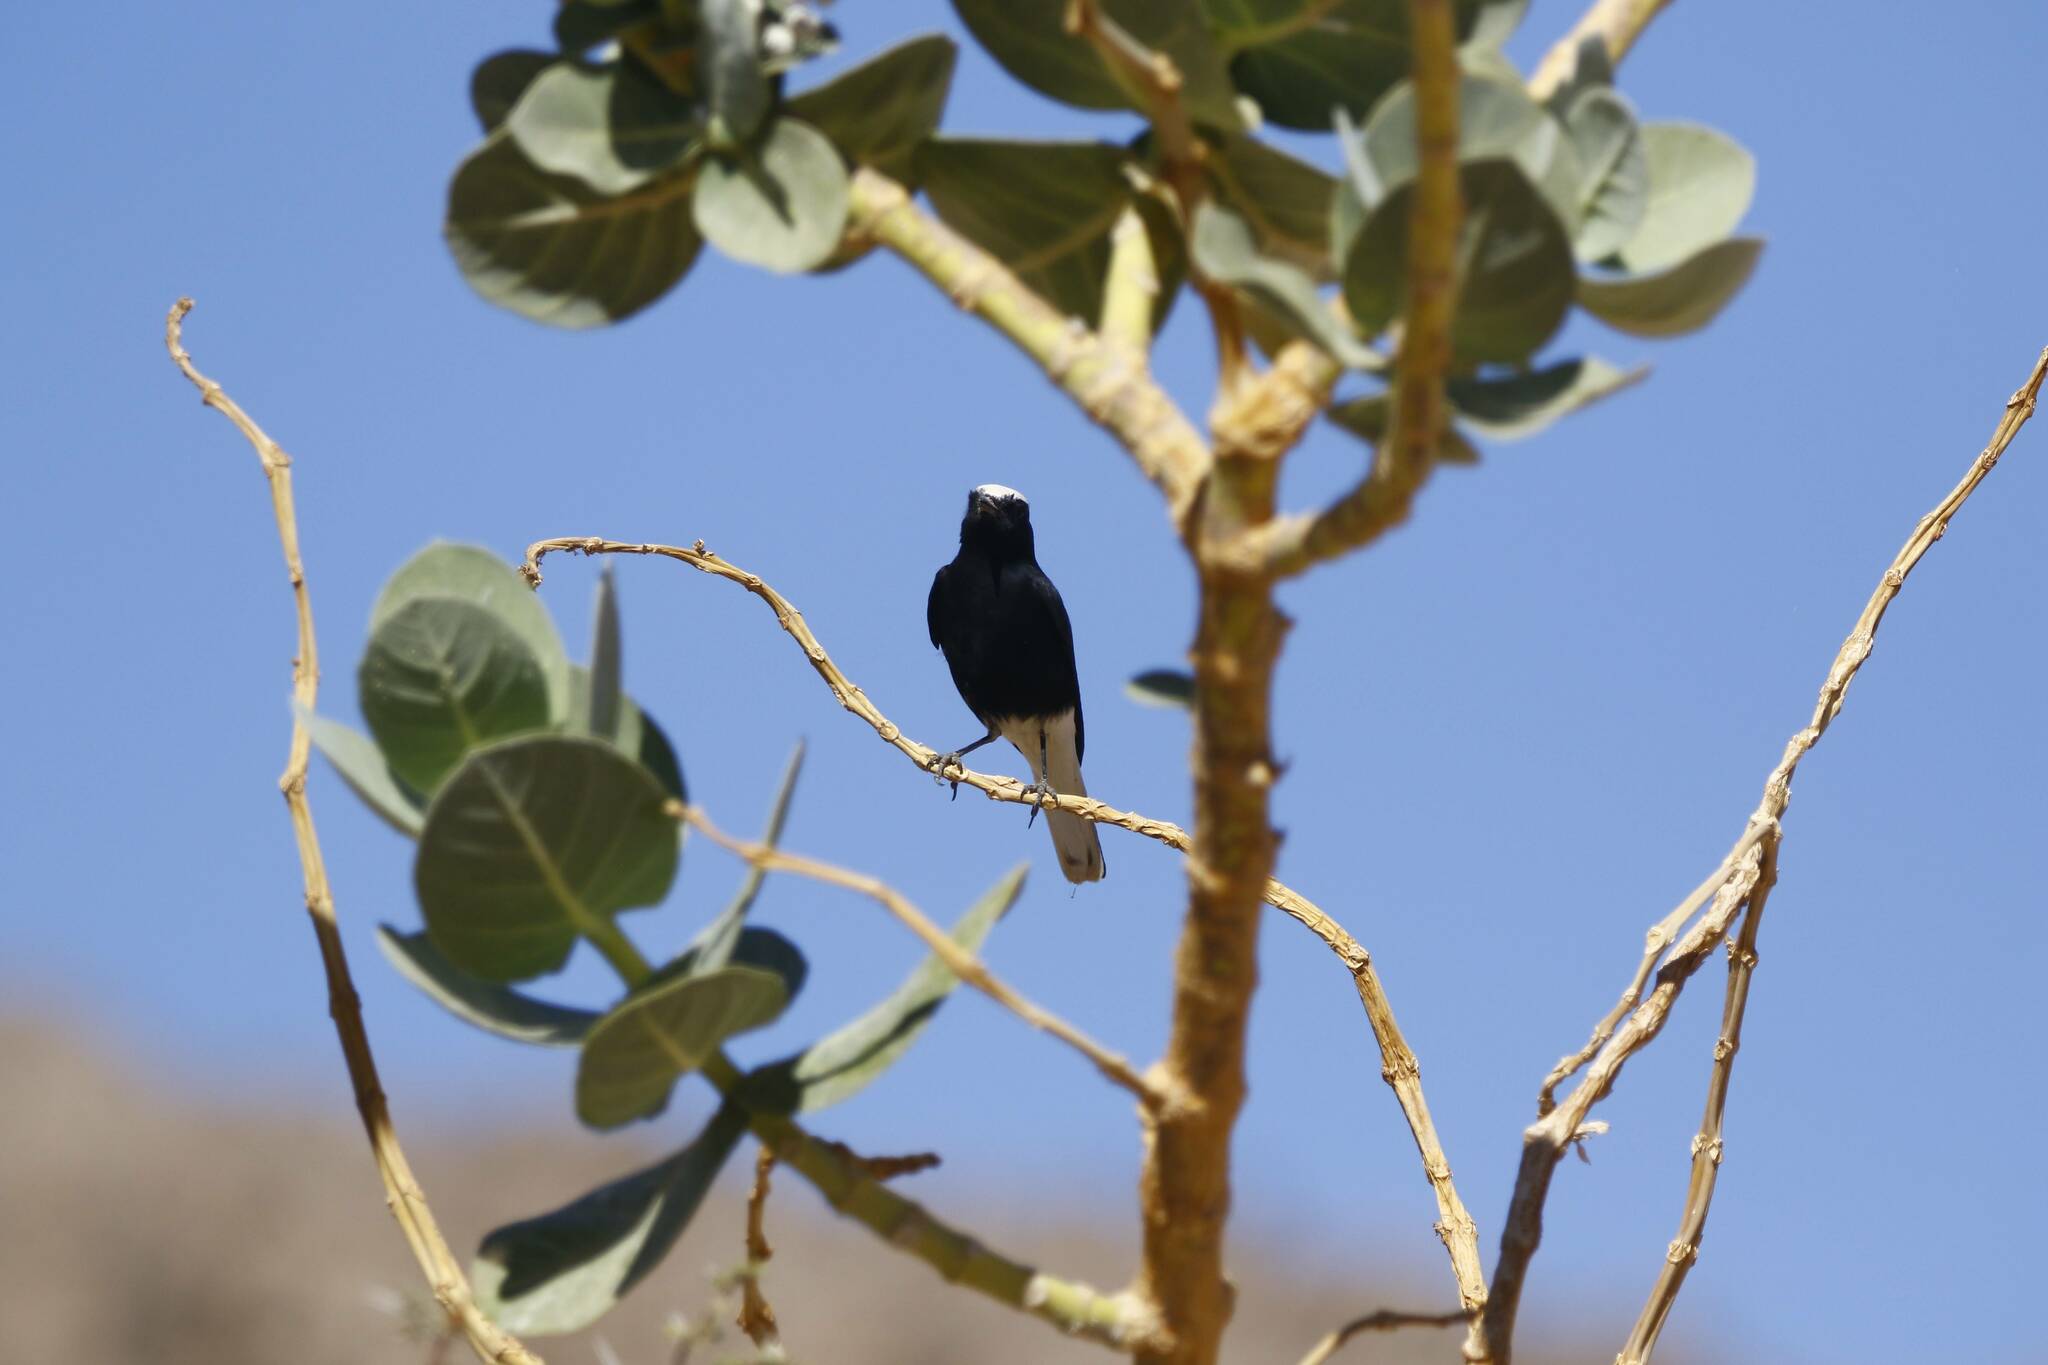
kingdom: Animalia
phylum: Chordata
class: Aves
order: Passeriformes
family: Muscicapidae
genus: Oenanthe
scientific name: Oenanthe leucopyga
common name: White-crowned wheatear
